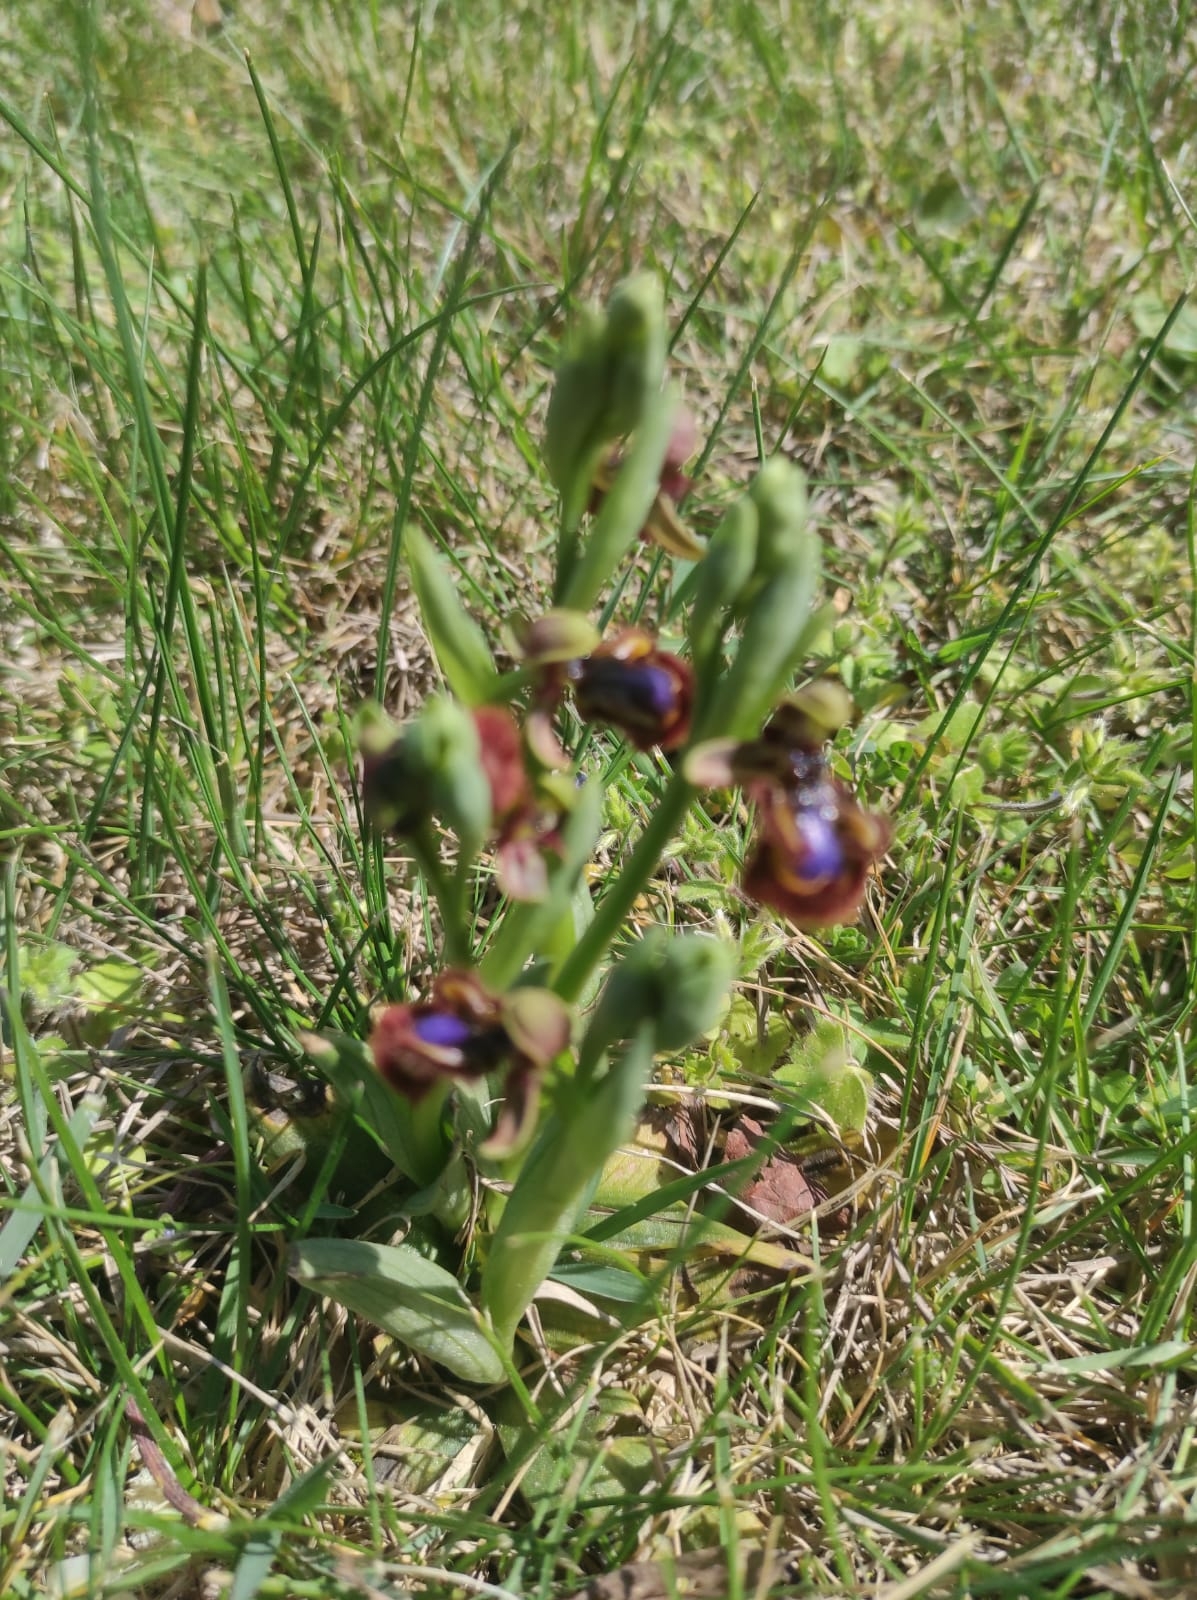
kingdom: Plantae
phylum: Tracheophyta
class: Liliopsida
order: Asparagales
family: Orchidaceae
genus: Ophrys
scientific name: Ophrys speculum
